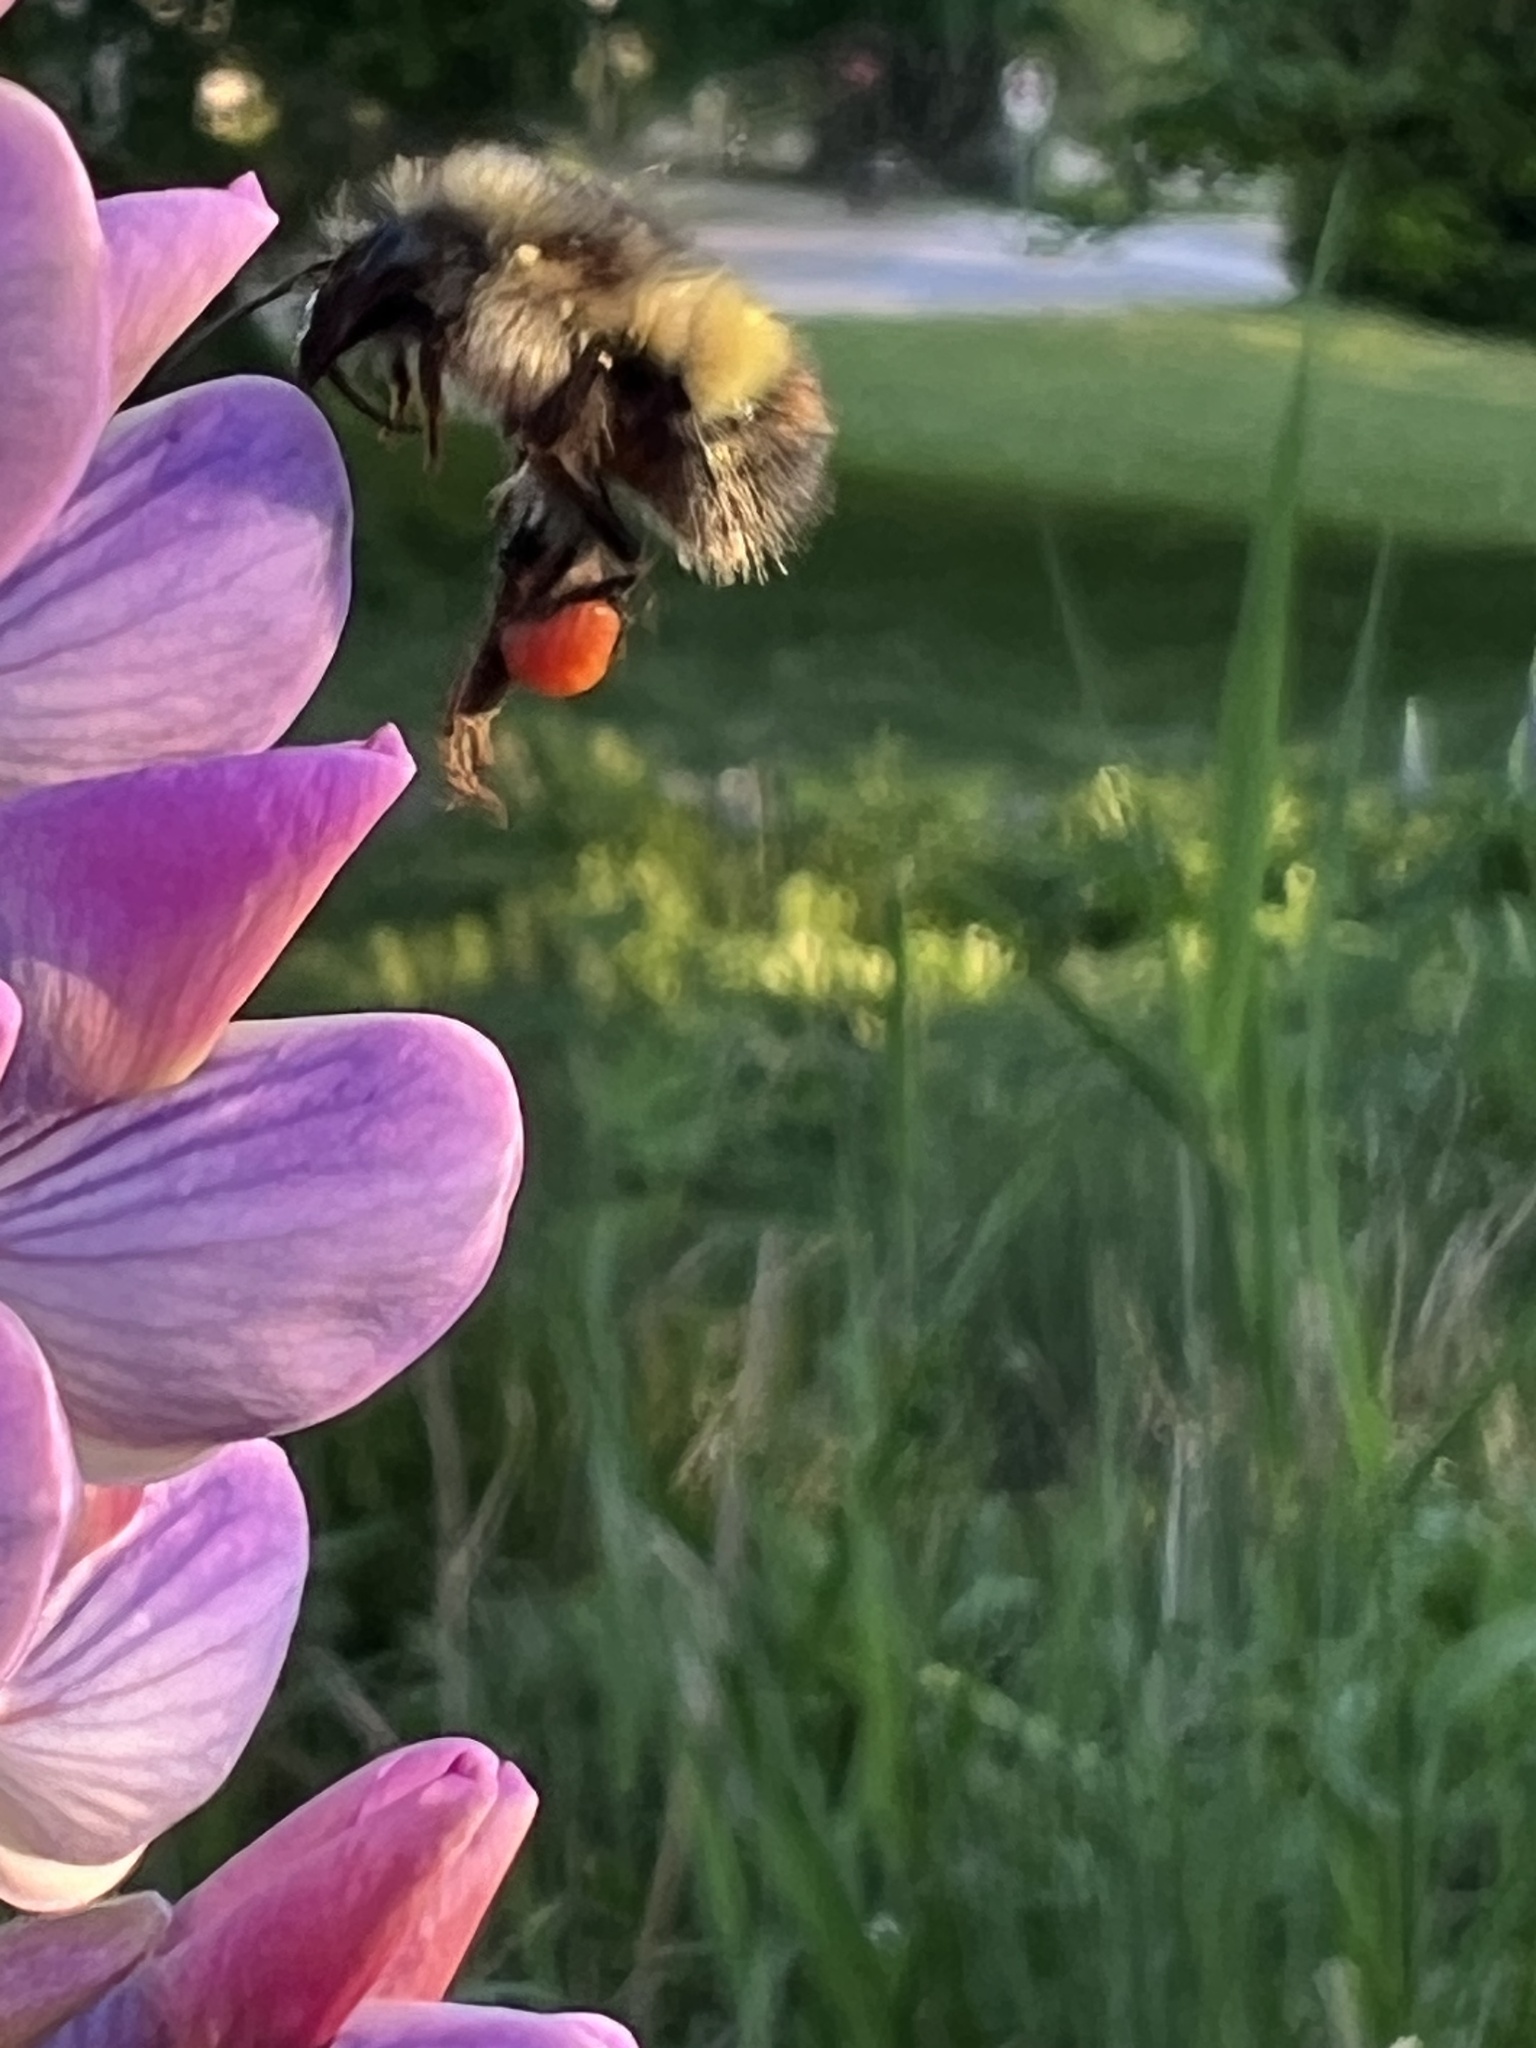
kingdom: Animalia
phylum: Arthropoda
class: Insecta
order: Hymenoptera
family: Apidae
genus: Bombus
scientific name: Bombus flavifrons
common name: Yellow head bumble bee
